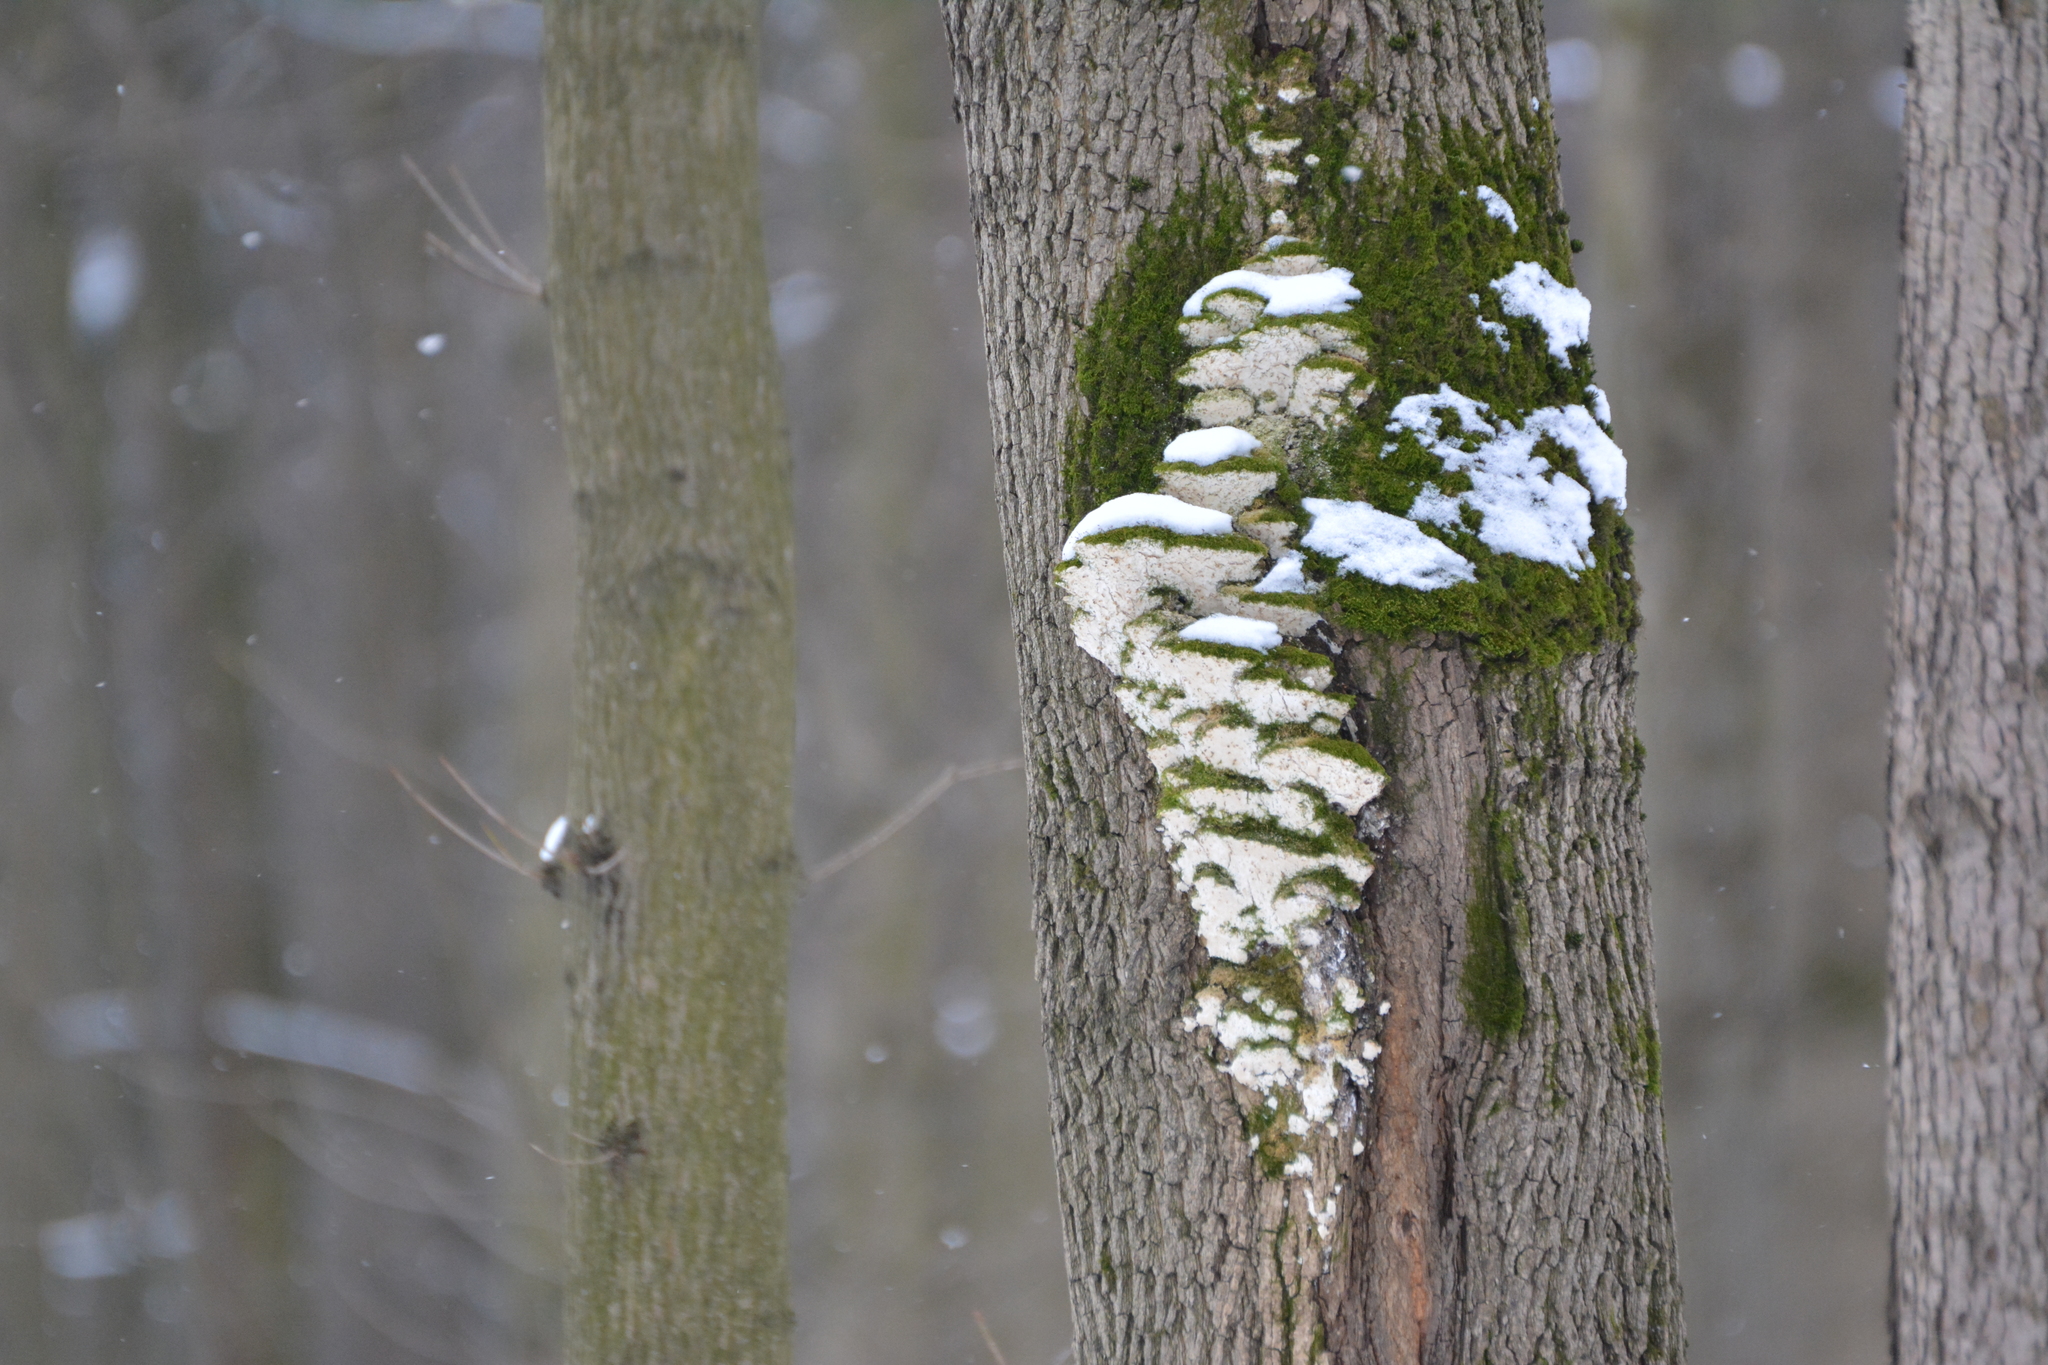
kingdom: Fungi
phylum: Basidiomycota
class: Agaricomycetes
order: Hymenochaetales
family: Oxyporaceae
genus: Oxyporus
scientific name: Oxyporus populinus
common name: Poplar bracket
